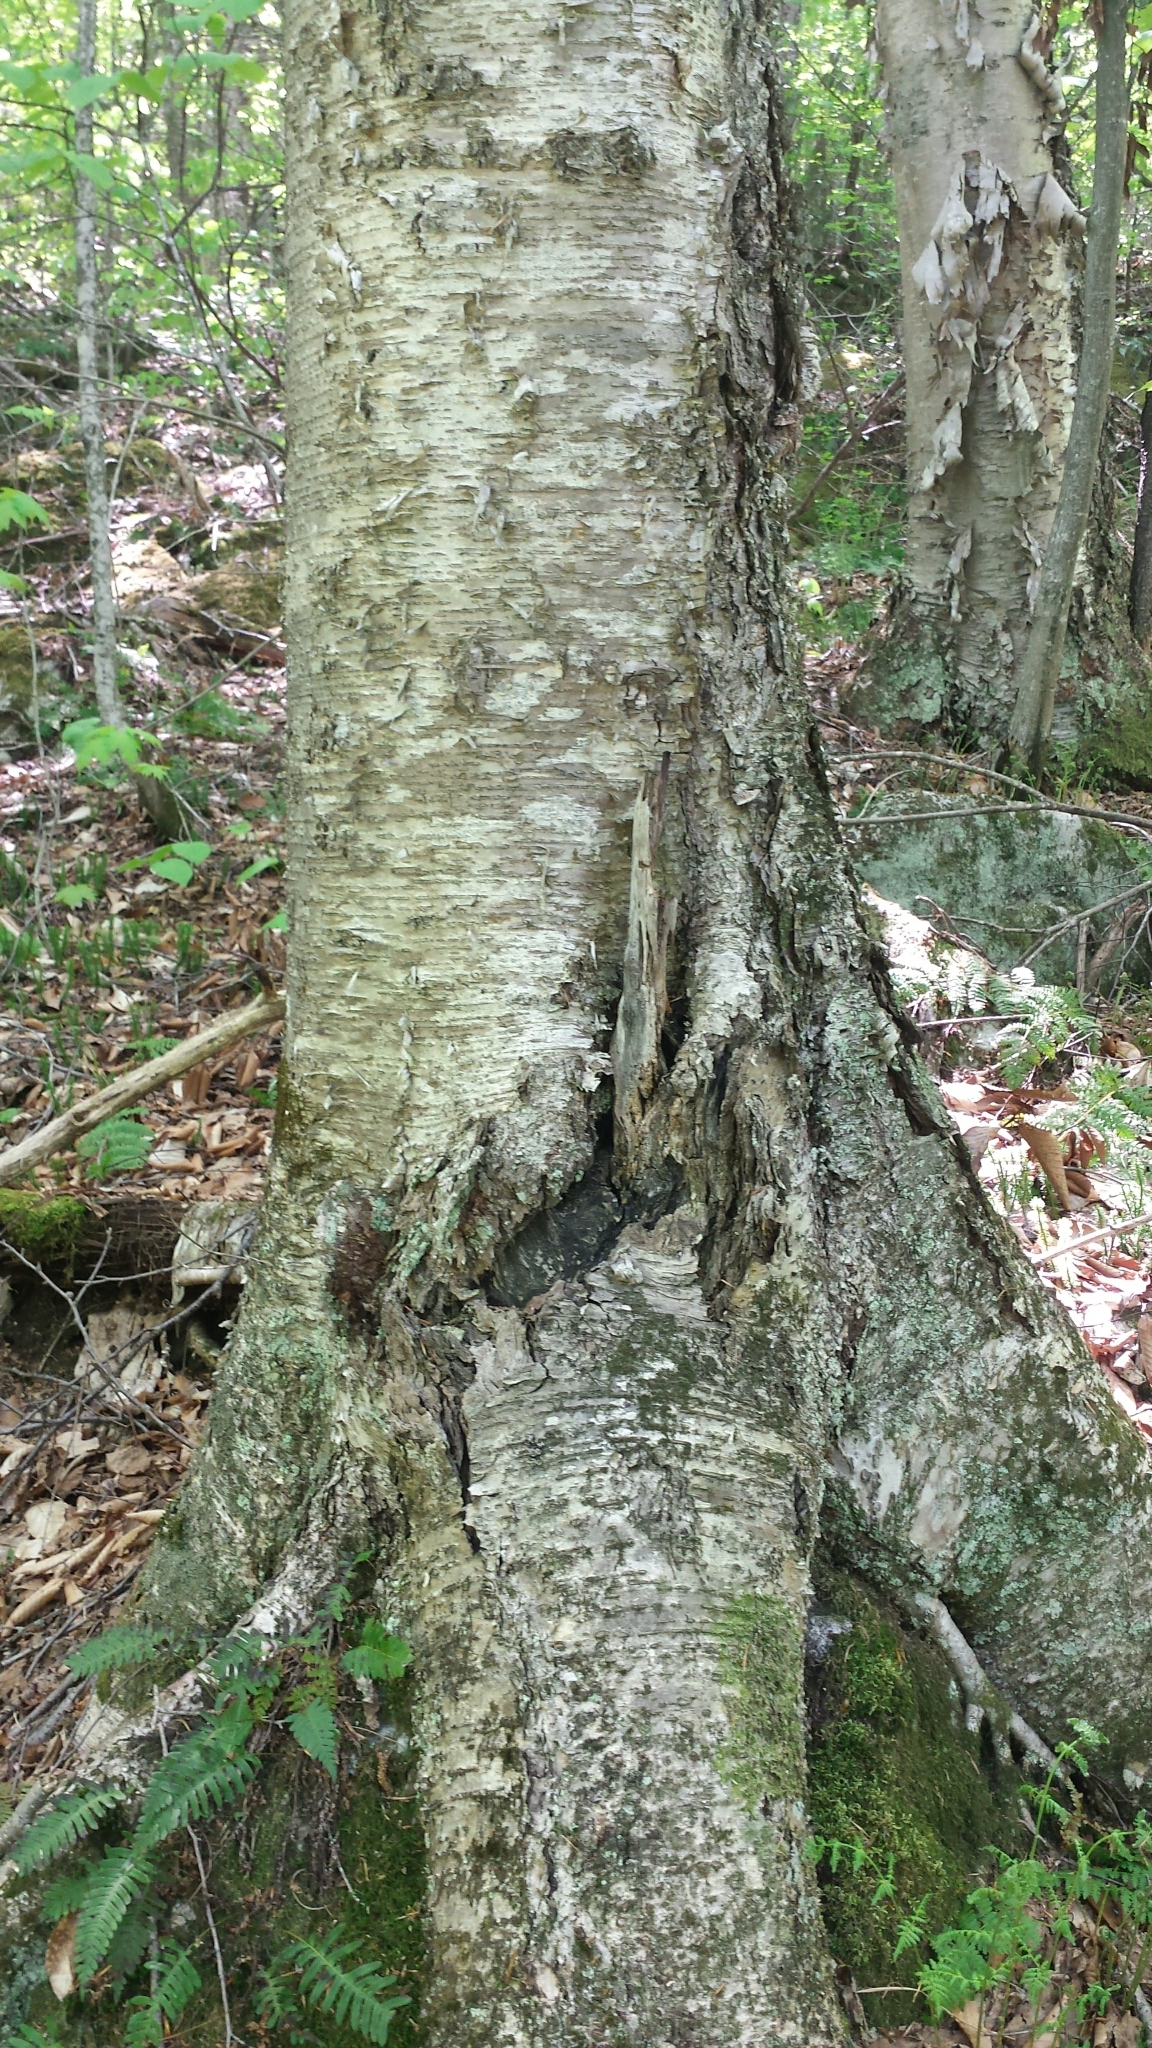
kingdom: Plantae
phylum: Tracheophyta
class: Magnoliopsida
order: Fagales
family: Betulaceae
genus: Betula
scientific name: Betula alleghaniensis
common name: Yellow birch
